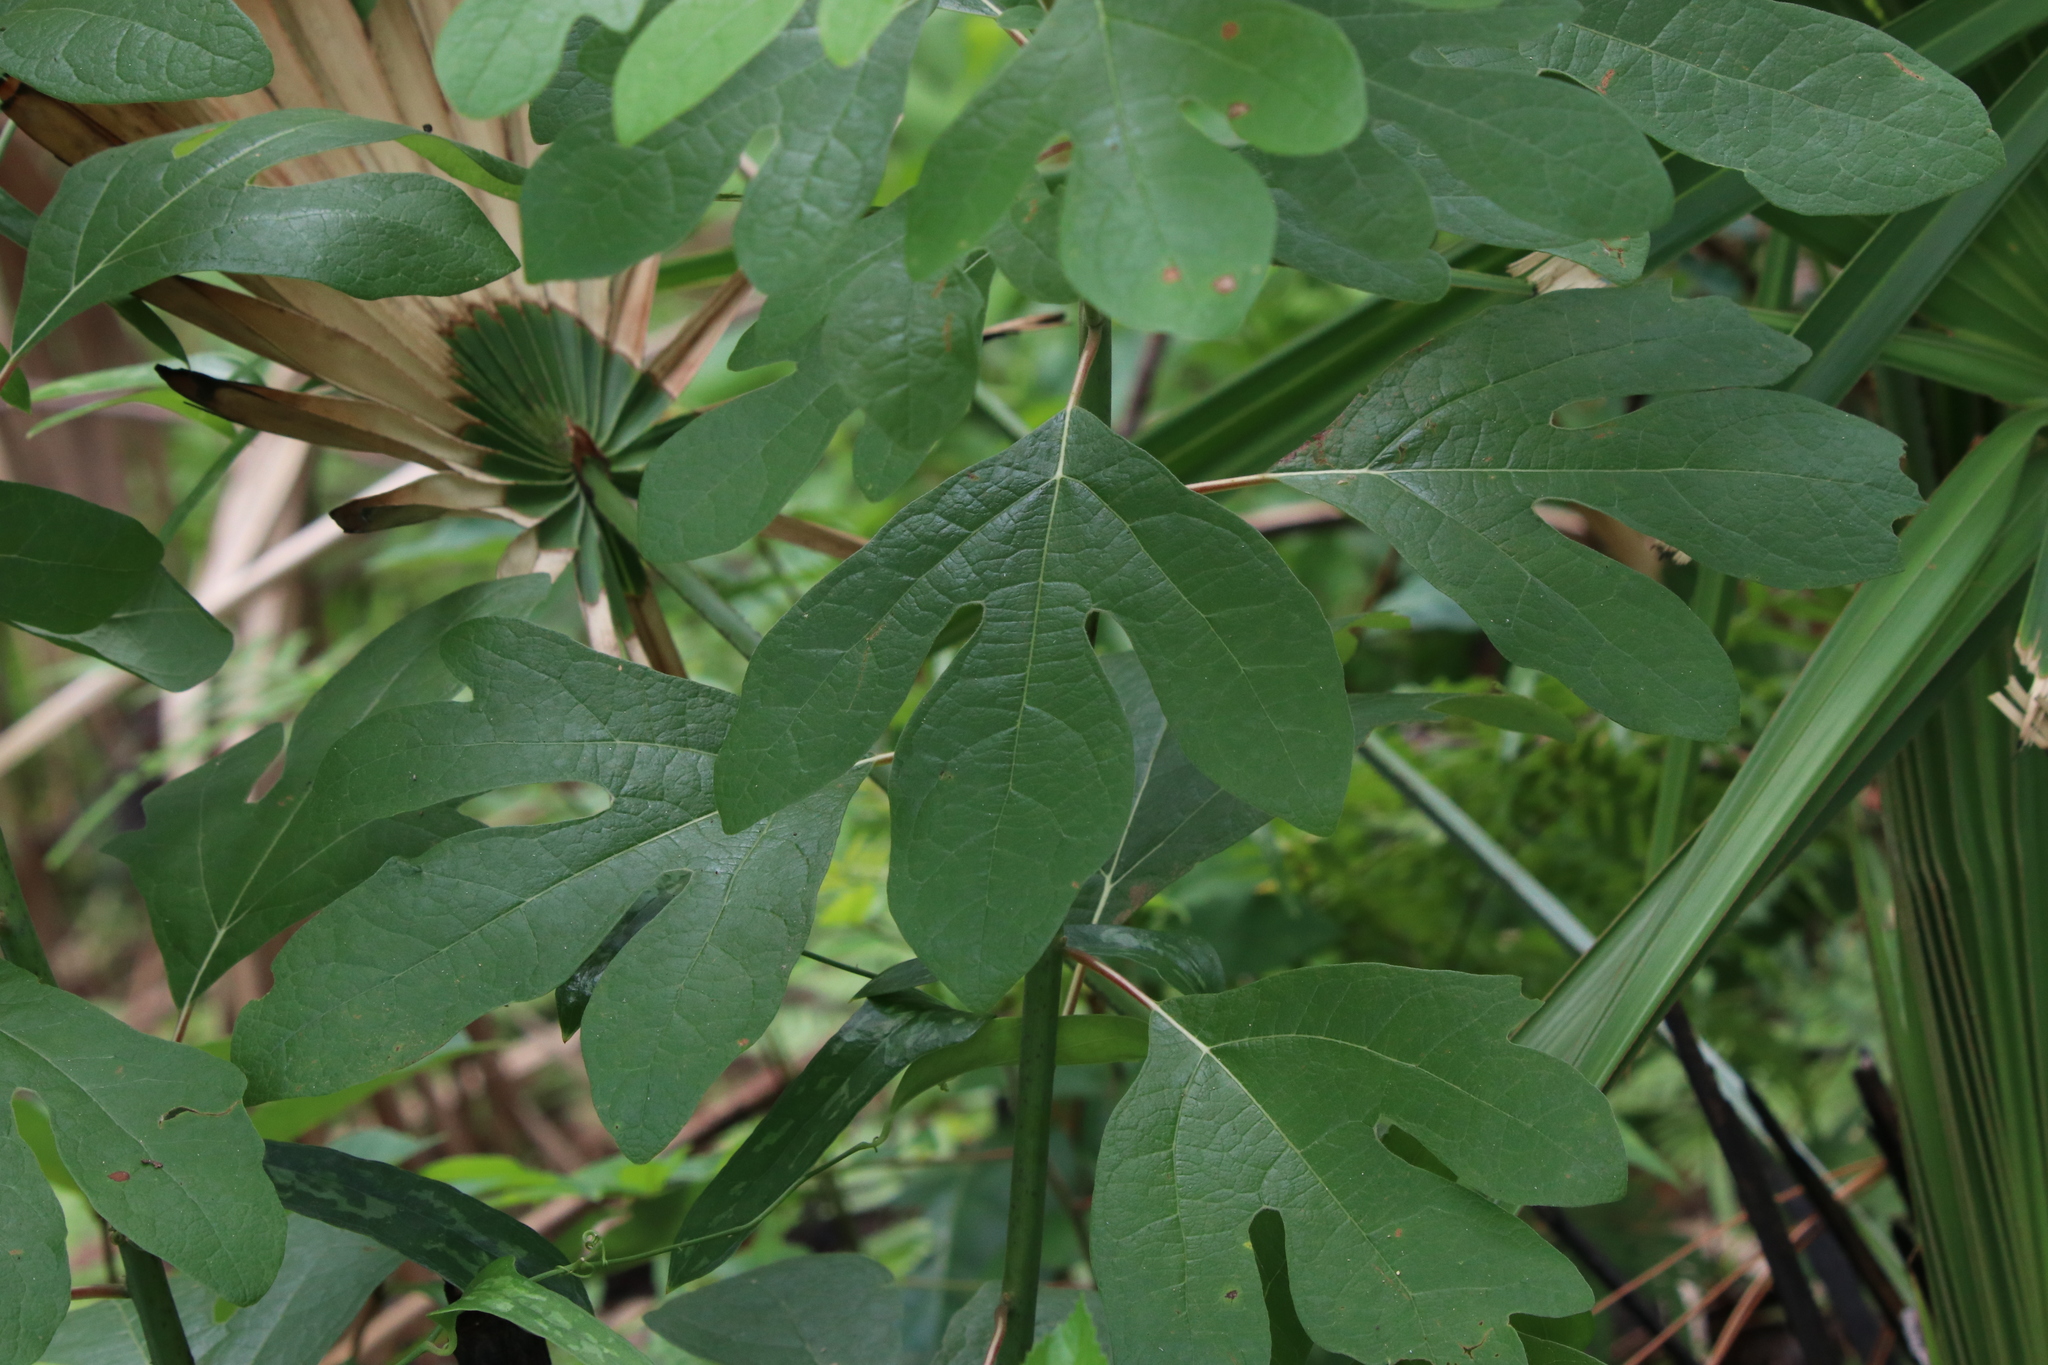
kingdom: Plantae
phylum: Tracheophyta
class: Magnoliopsida
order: Laurales
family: Lauraceae
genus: Sassafras
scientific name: Sassafras albidum
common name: Sassafras
